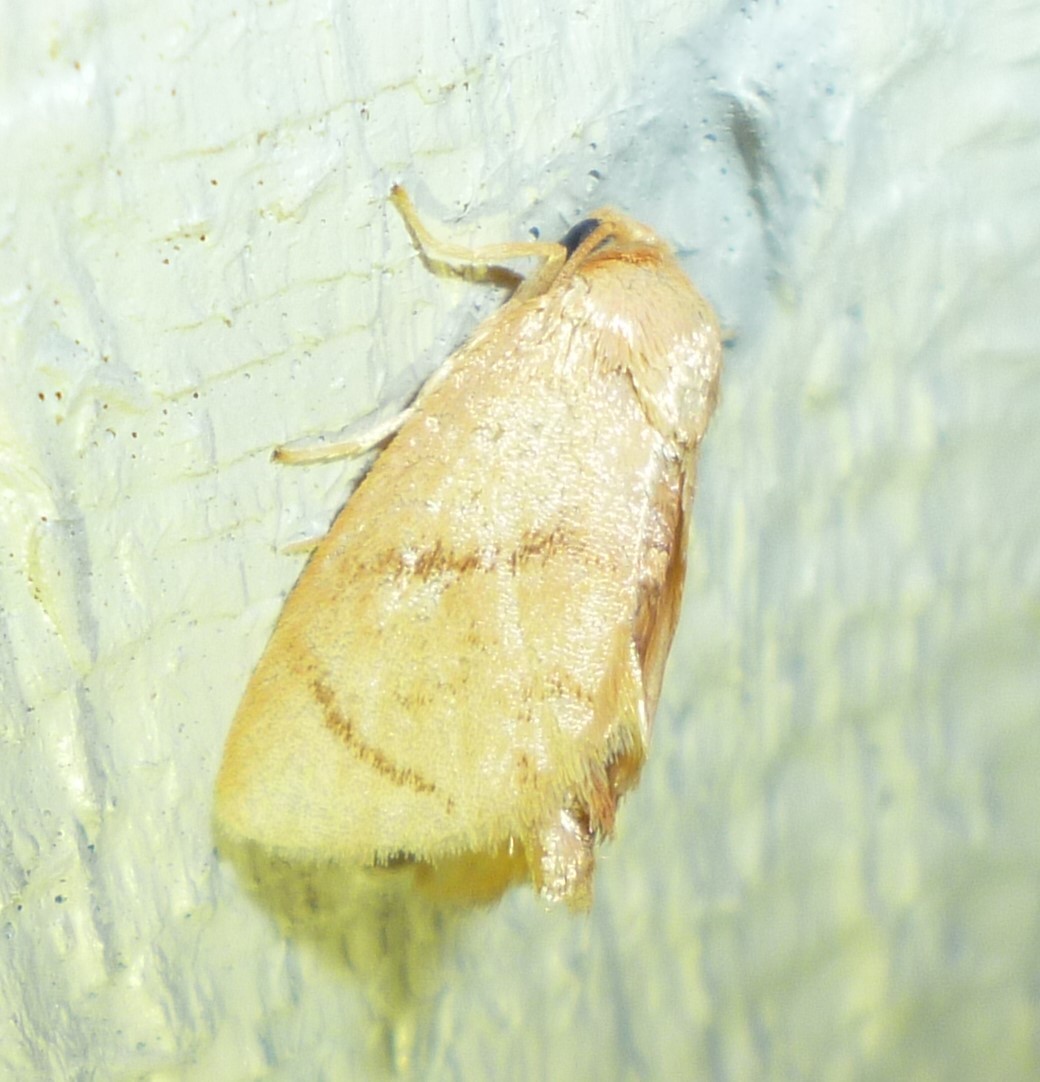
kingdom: Animalia
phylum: Arthropoda
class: Insecta
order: Lepidoptera
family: Limacodidae
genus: Tortricidia
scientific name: Tortricidia flexuosa
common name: Abbreviated button slug moth
